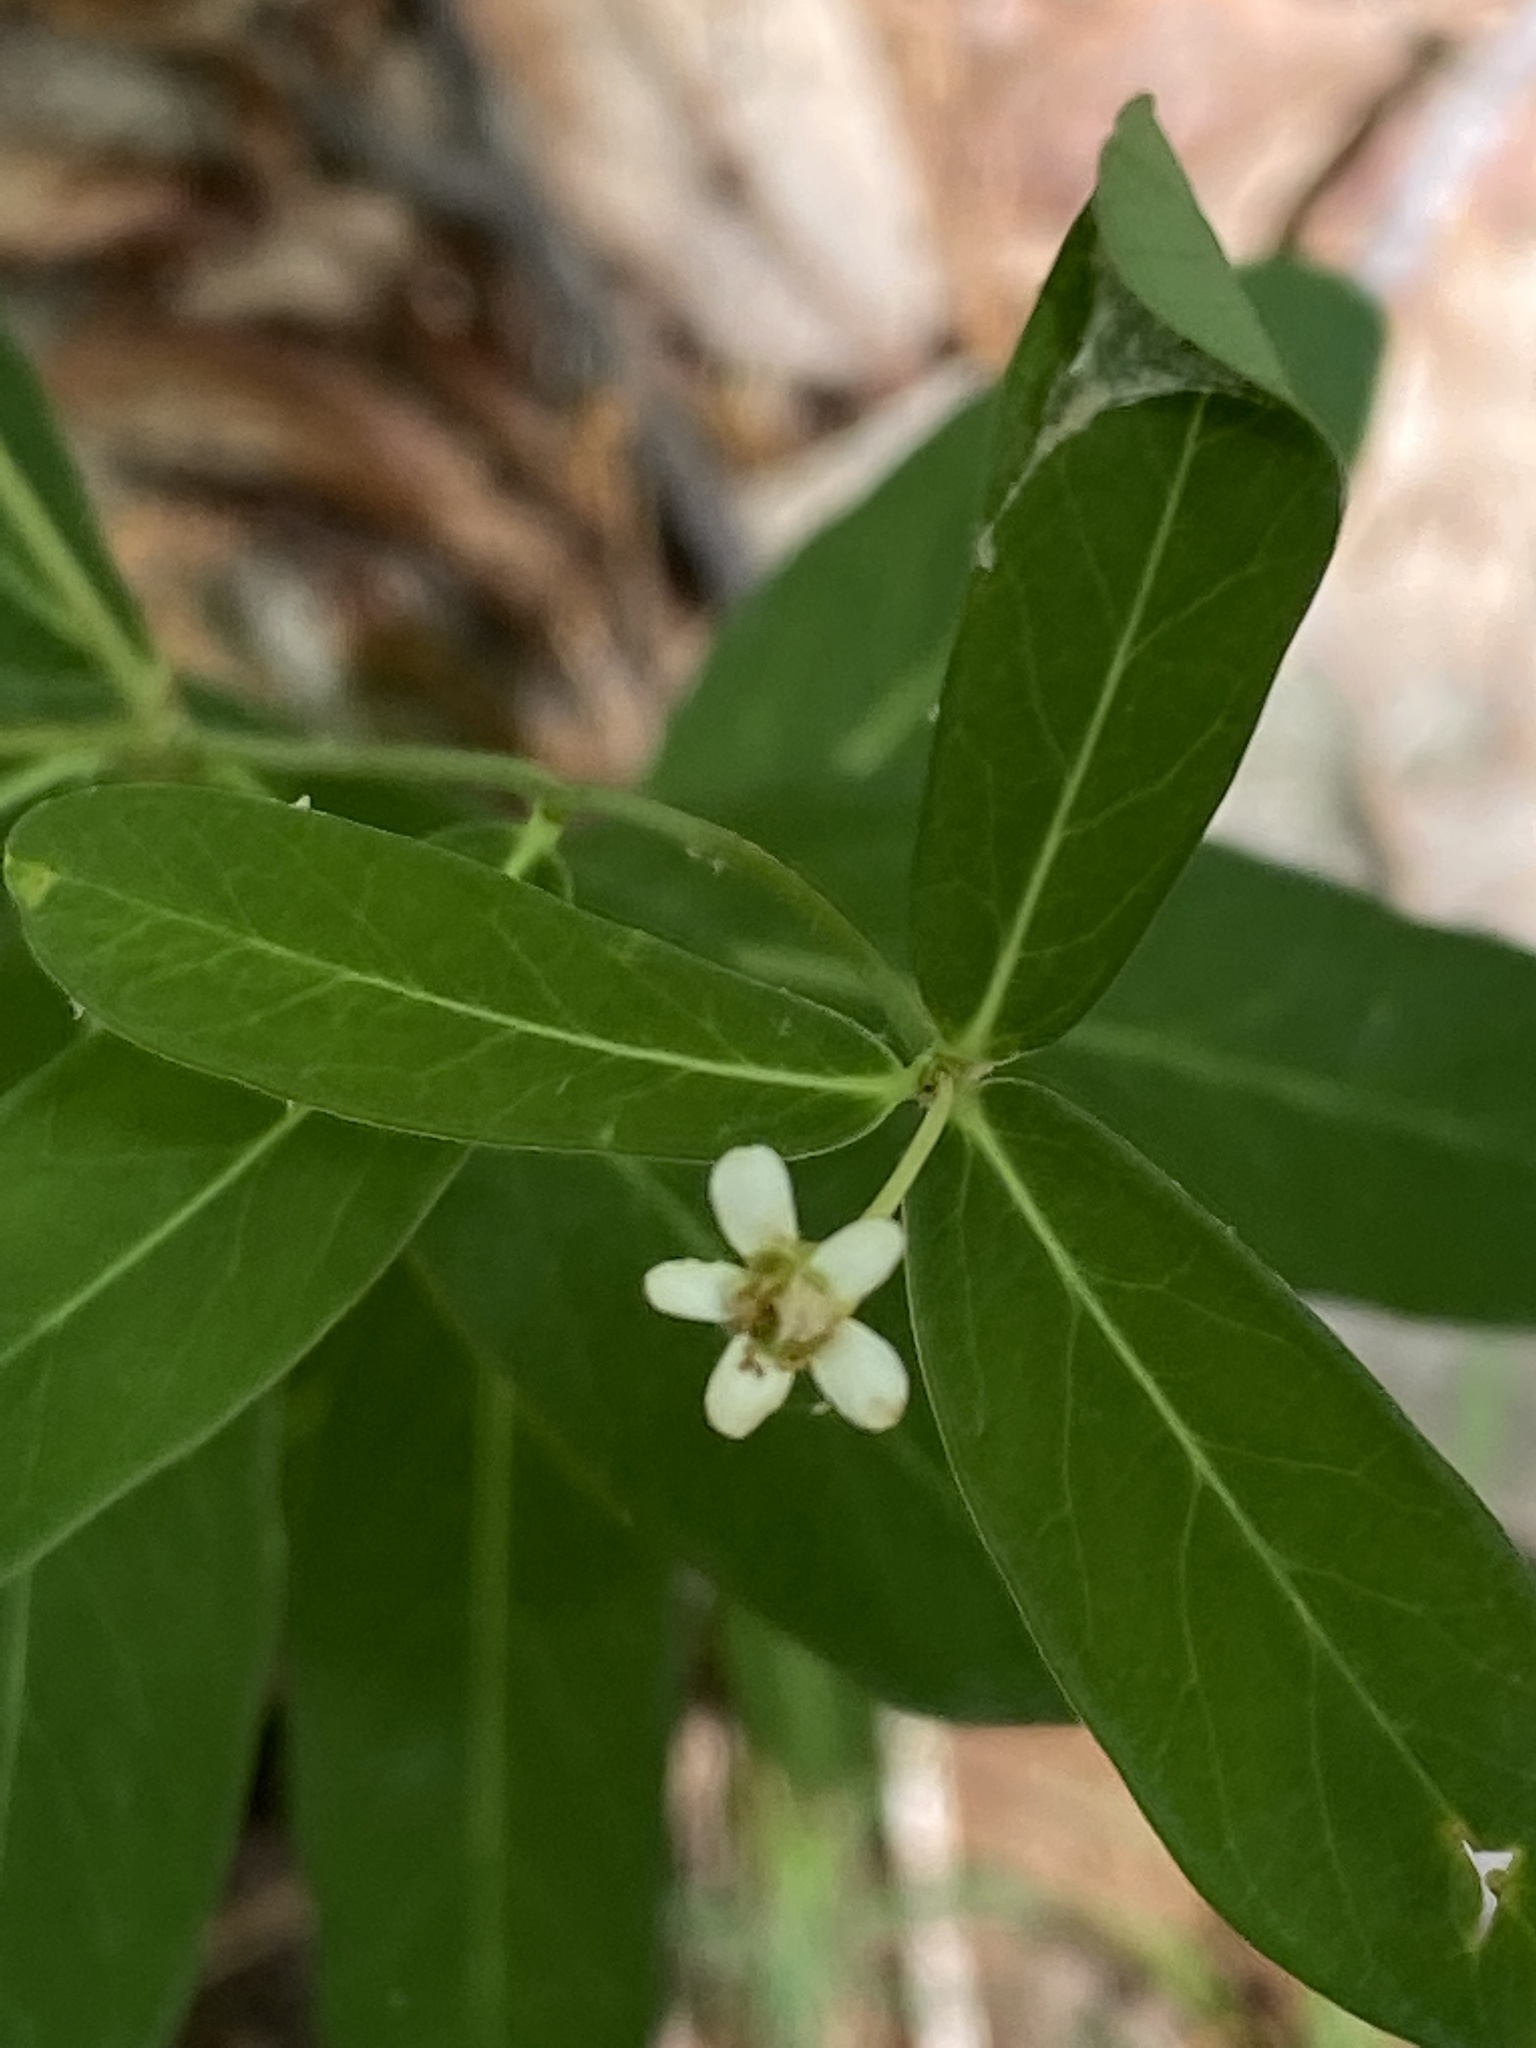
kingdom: Plantae
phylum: Tracheophyta
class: Magnoliopsida
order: Malpighiales
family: Euphorbiaceae
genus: Euphorbia
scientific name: Euphorbia corollata
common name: Flowering spurge
